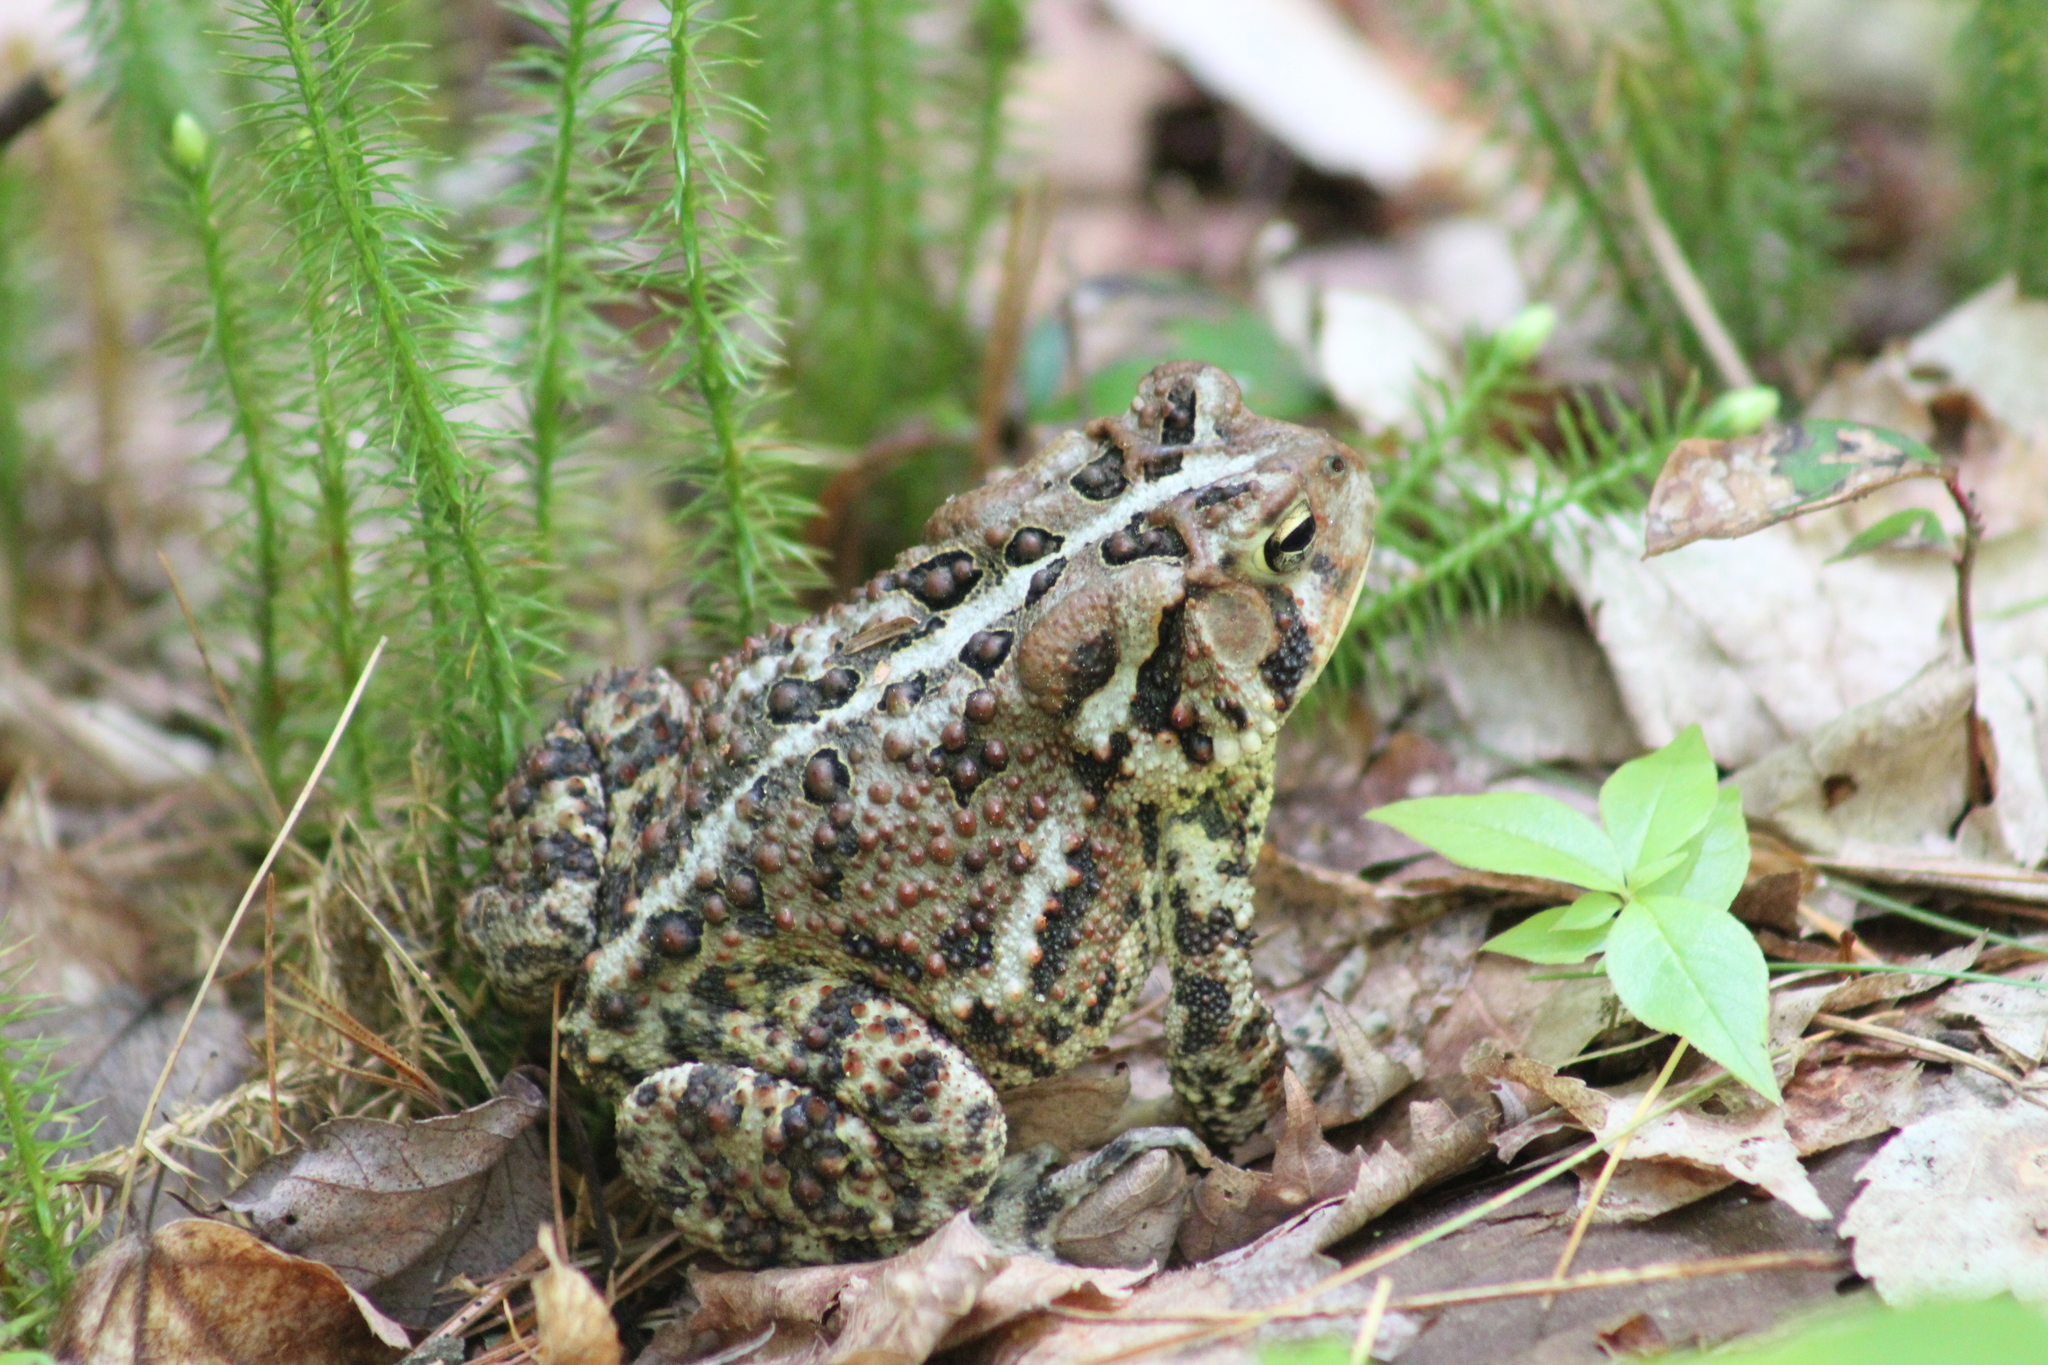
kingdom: Animalia
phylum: Chordata
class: Amphibia
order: Anura
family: Bufonidae
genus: Anaxyrus
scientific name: Anaxyrus americanus
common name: American toad
